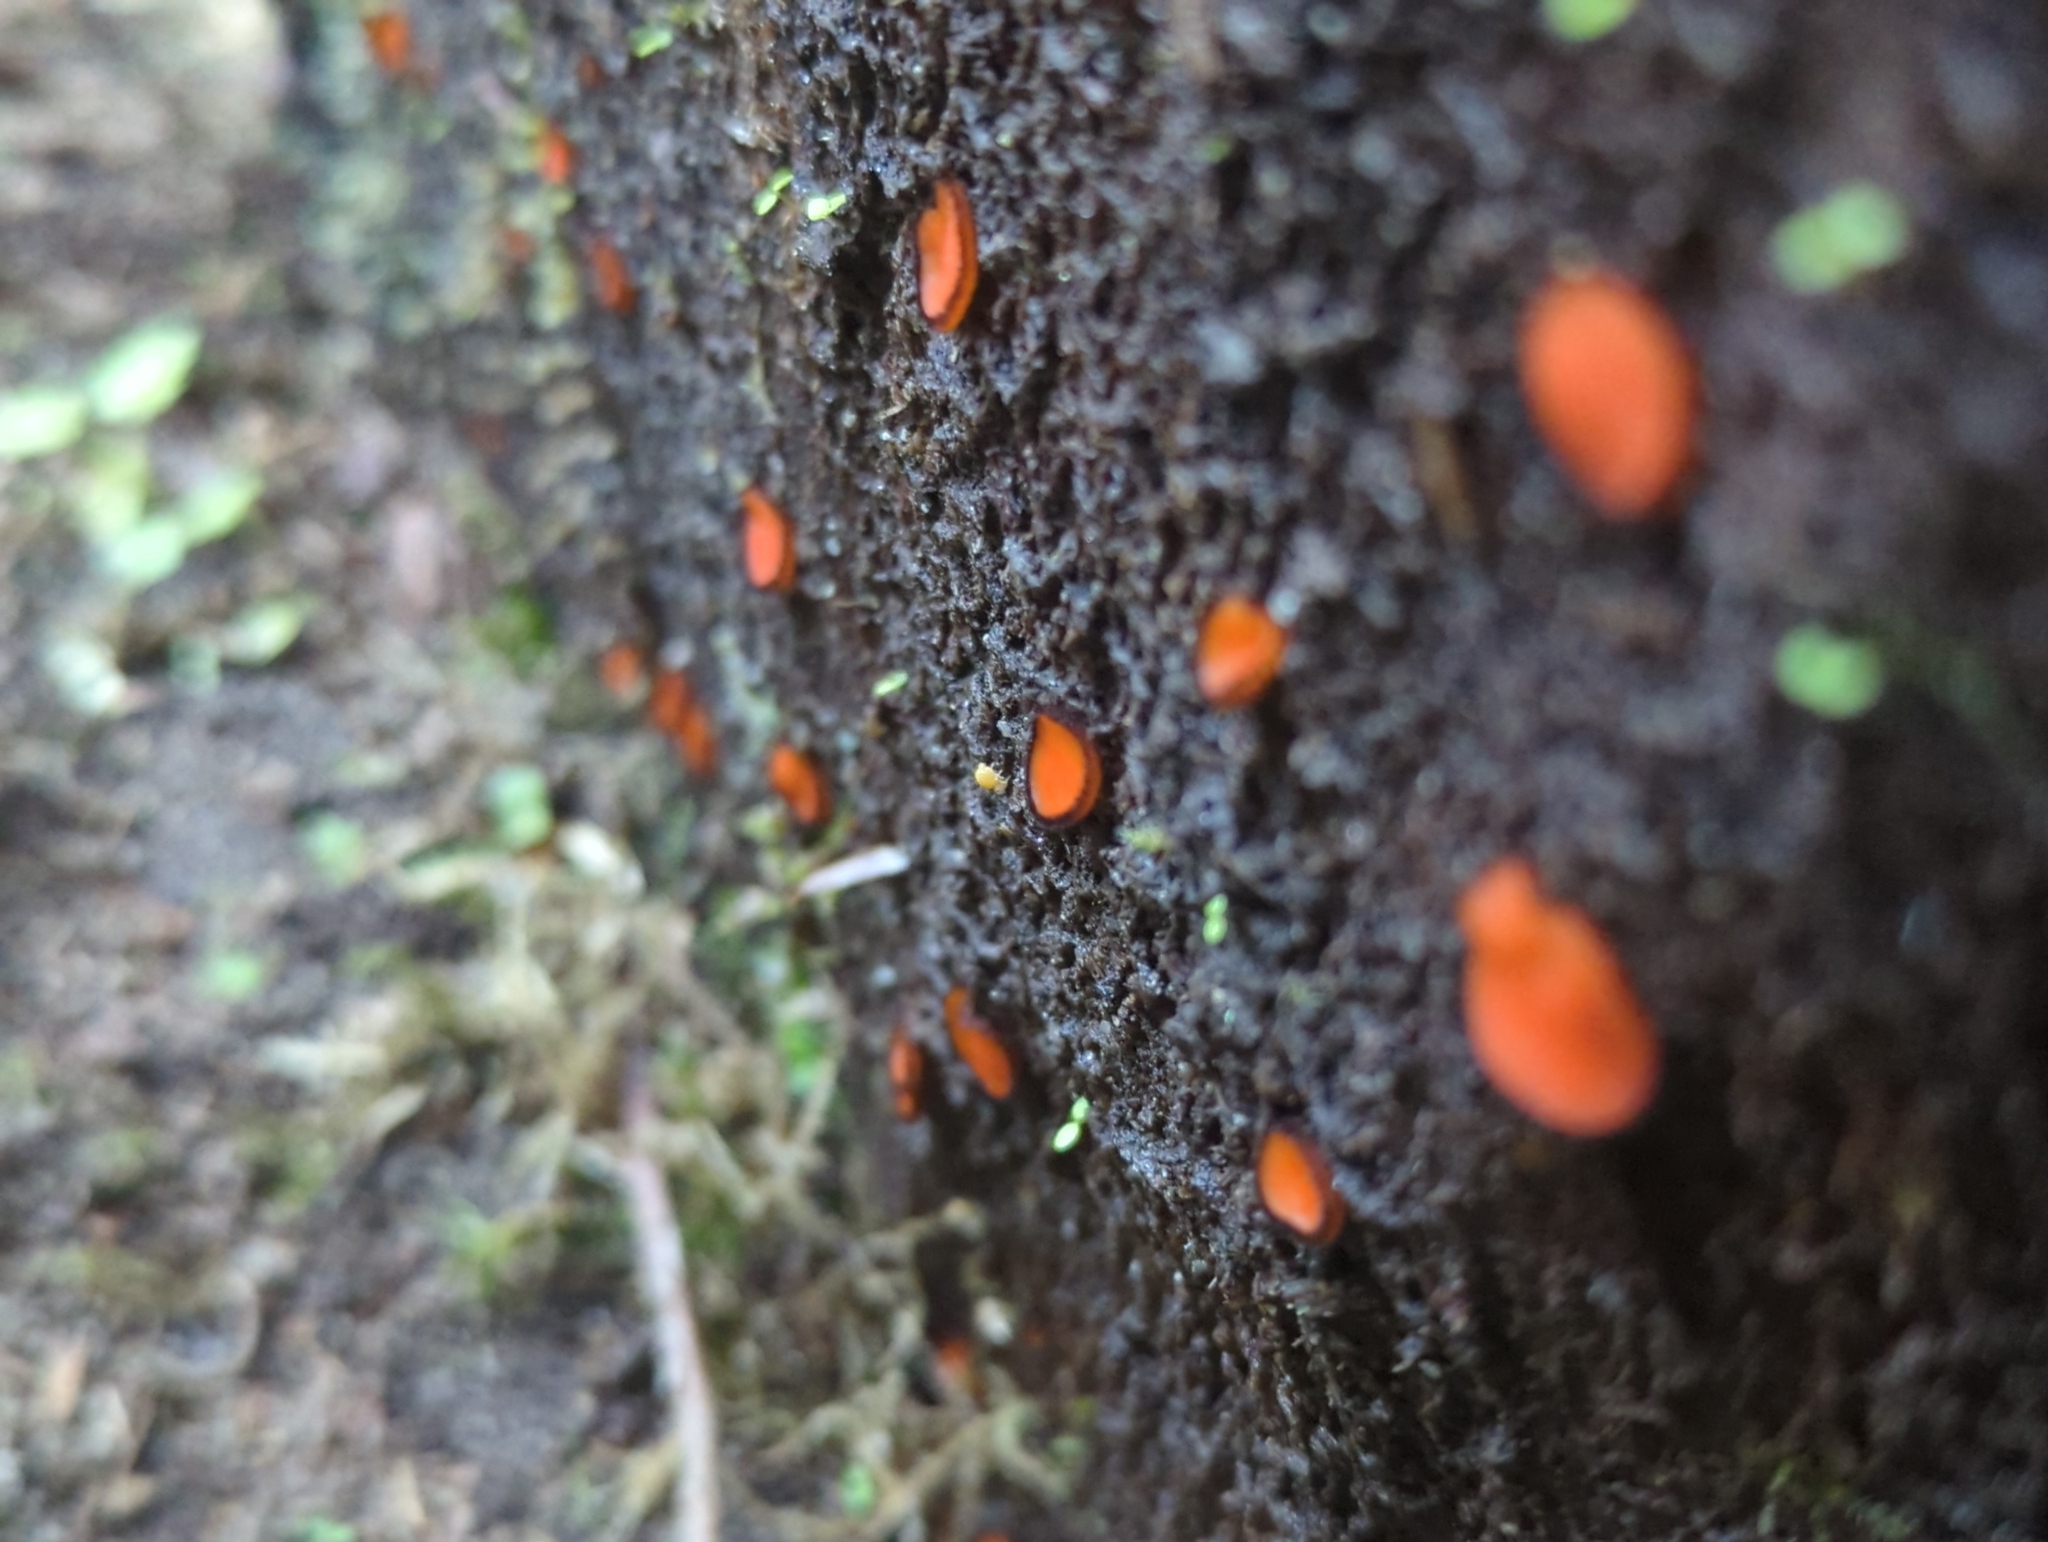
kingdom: Fungi
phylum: Ascomycota
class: Pezizomycetes
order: Pezizales
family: Pyronemataceae
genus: Scutellinia
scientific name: Scutellinia scutellata
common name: Common eyelash
